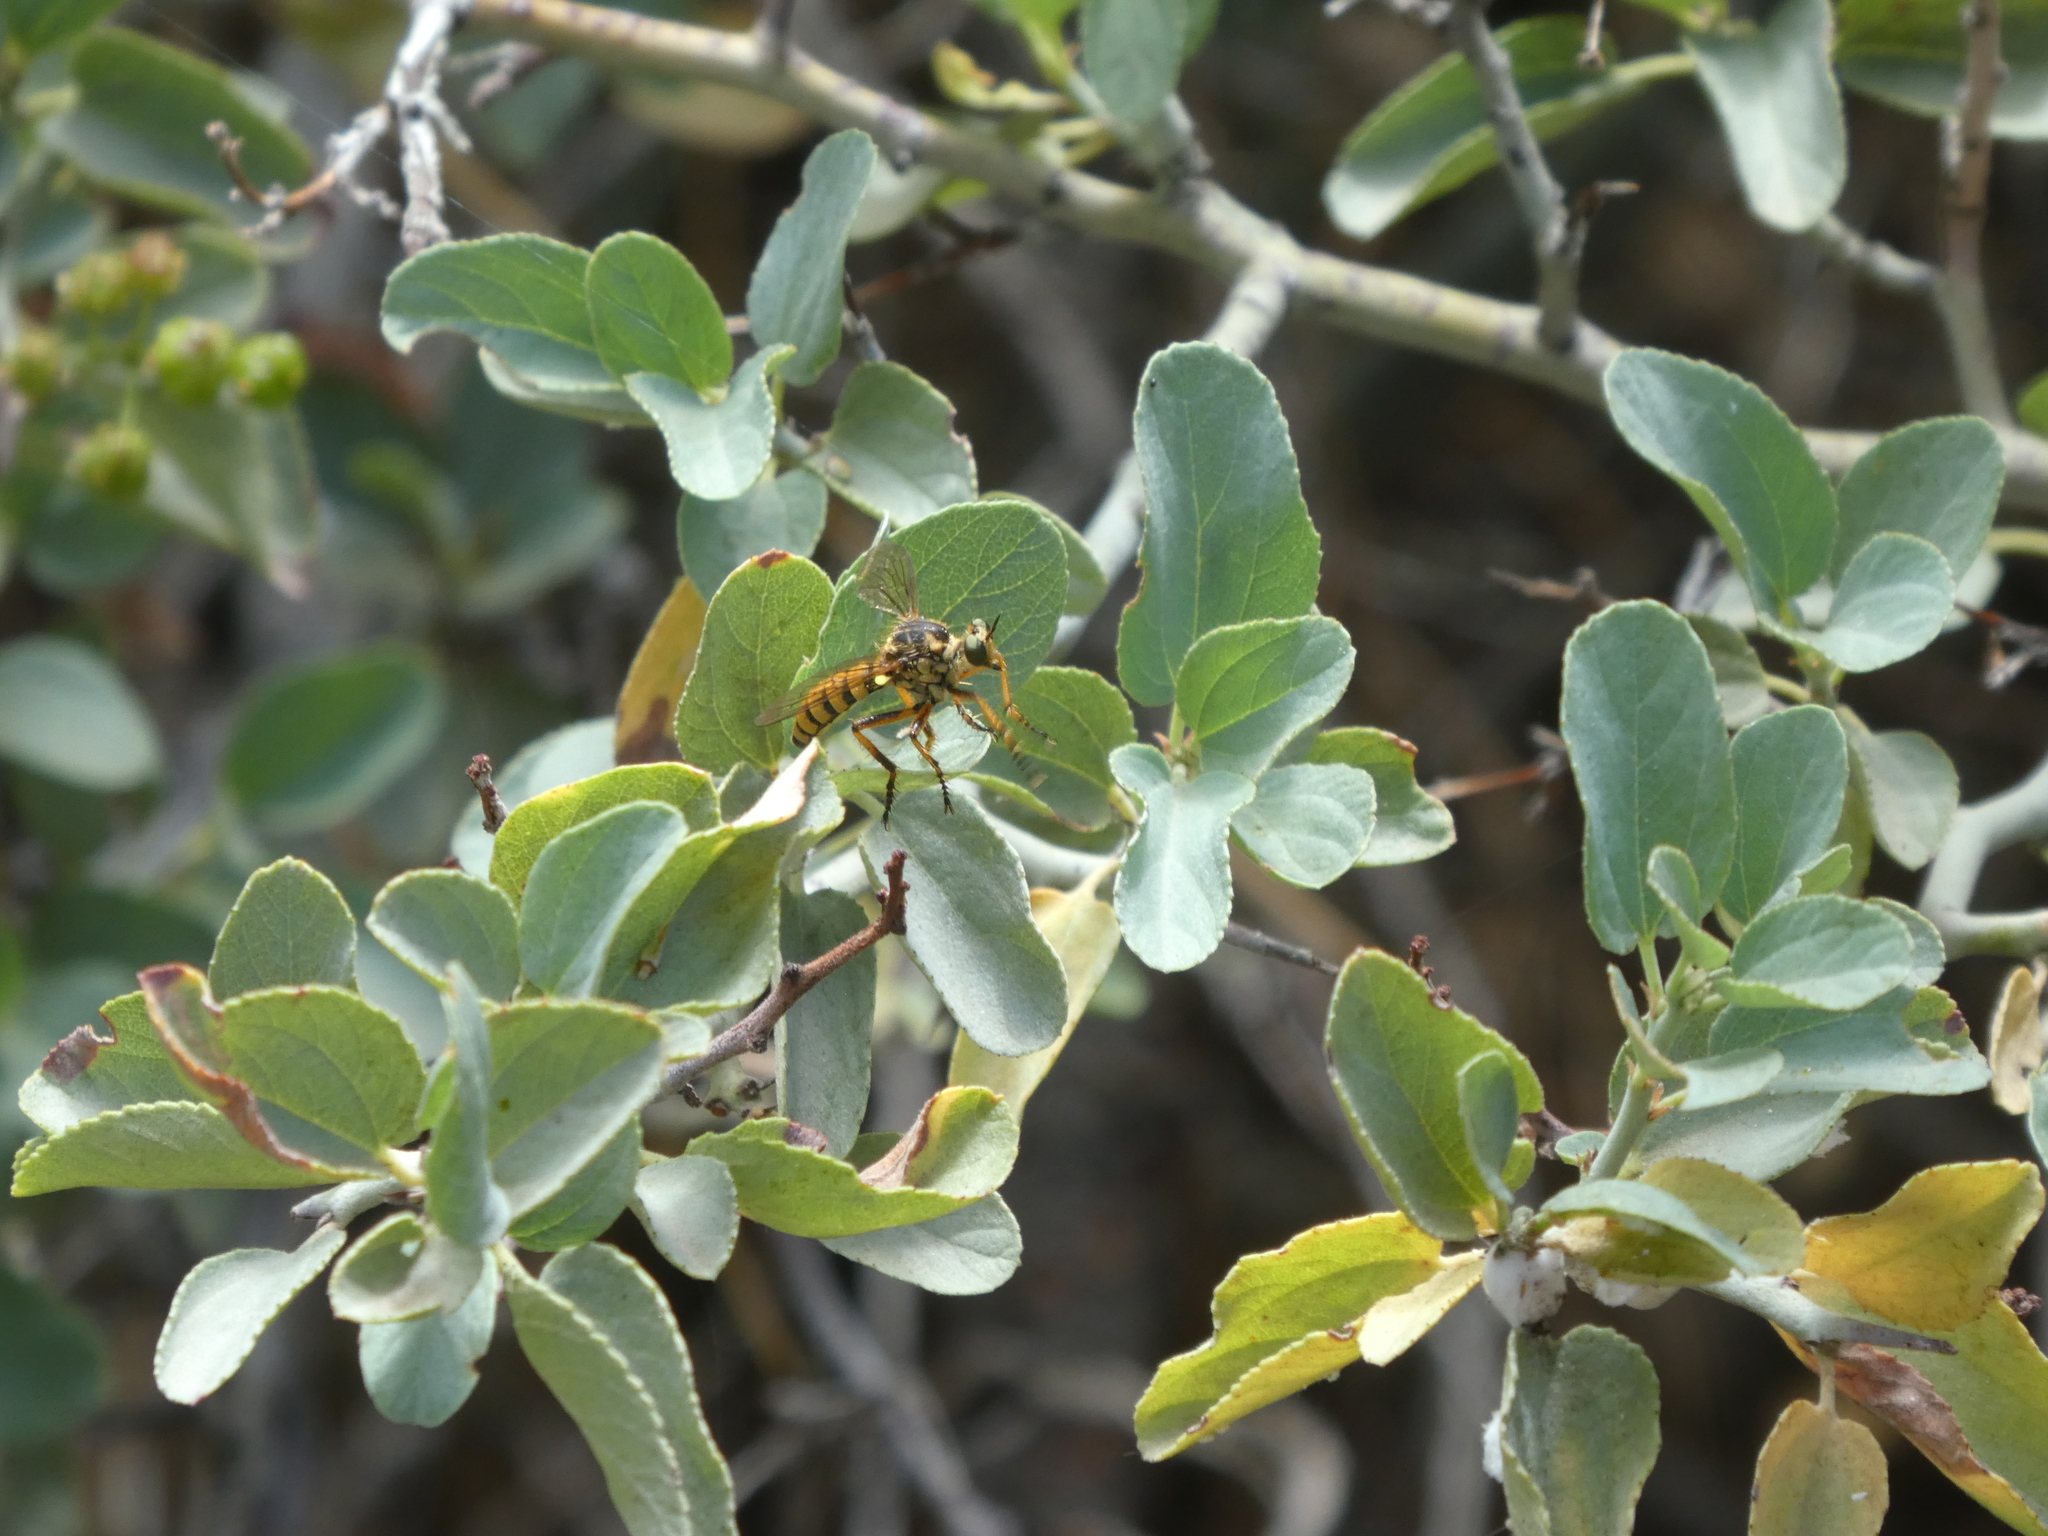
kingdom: Animalia
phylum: Arthropoda
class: Insecta
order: Diptera
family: Asilidae
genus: Callinicus
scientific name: Callinicus pictitarsis
